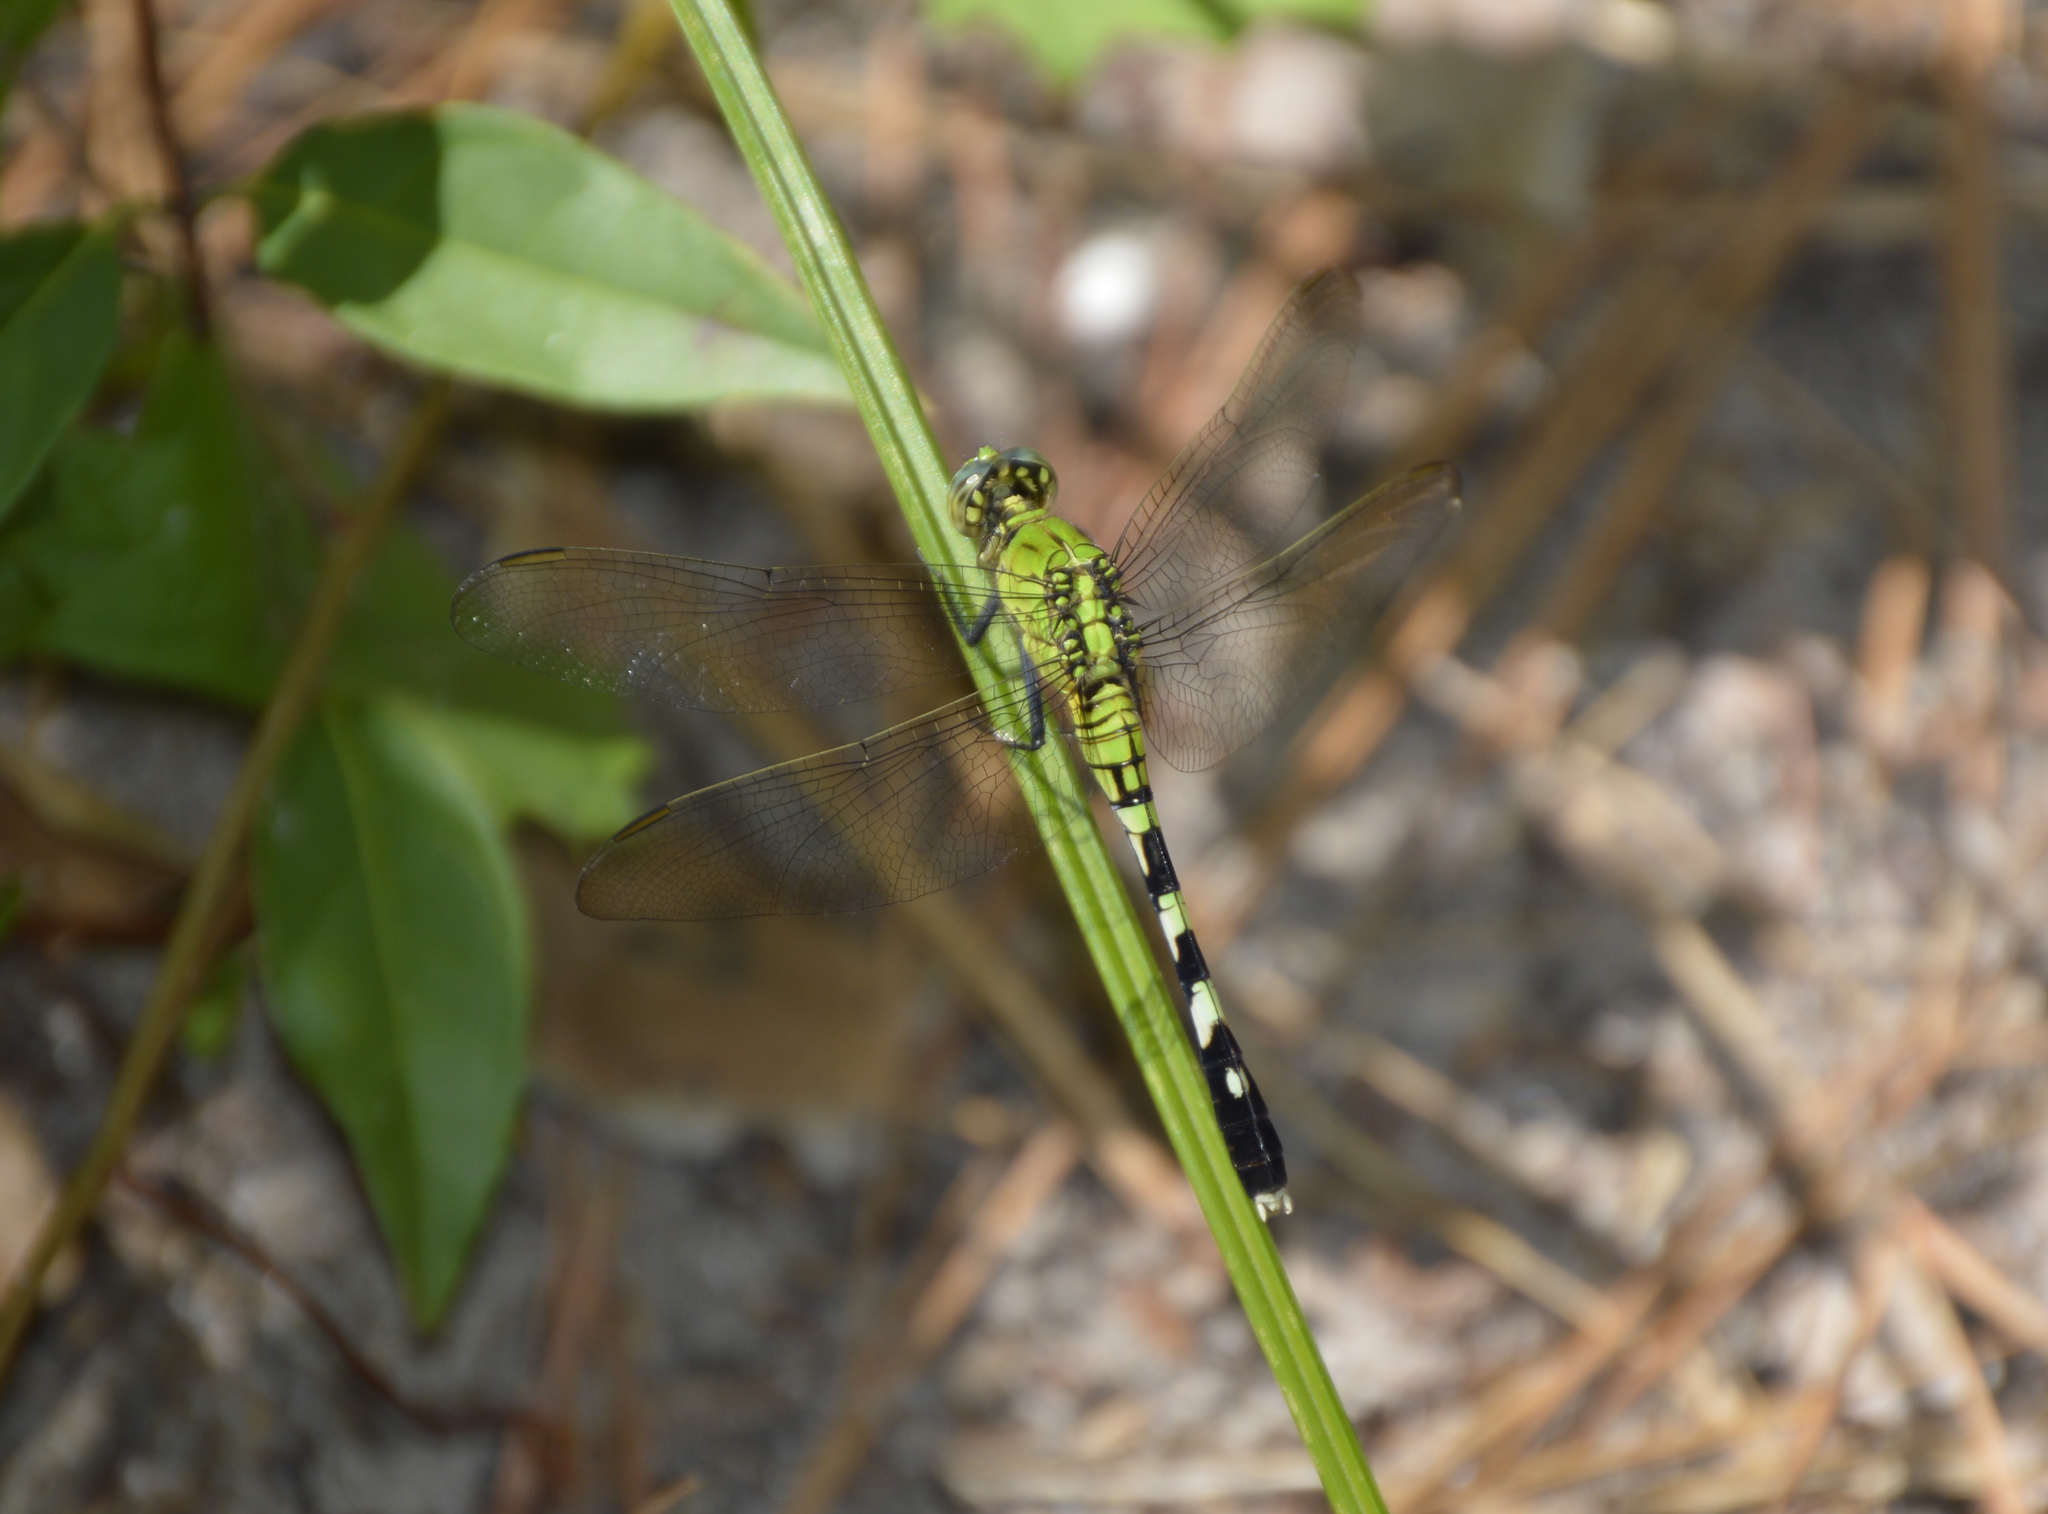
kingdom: Animalia
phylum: Arthropoda
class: Insecta
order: Odonata
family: Libellulidae
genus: Erythemis
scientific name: Erythemis simplicicollis
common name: Eastern pondhawk
